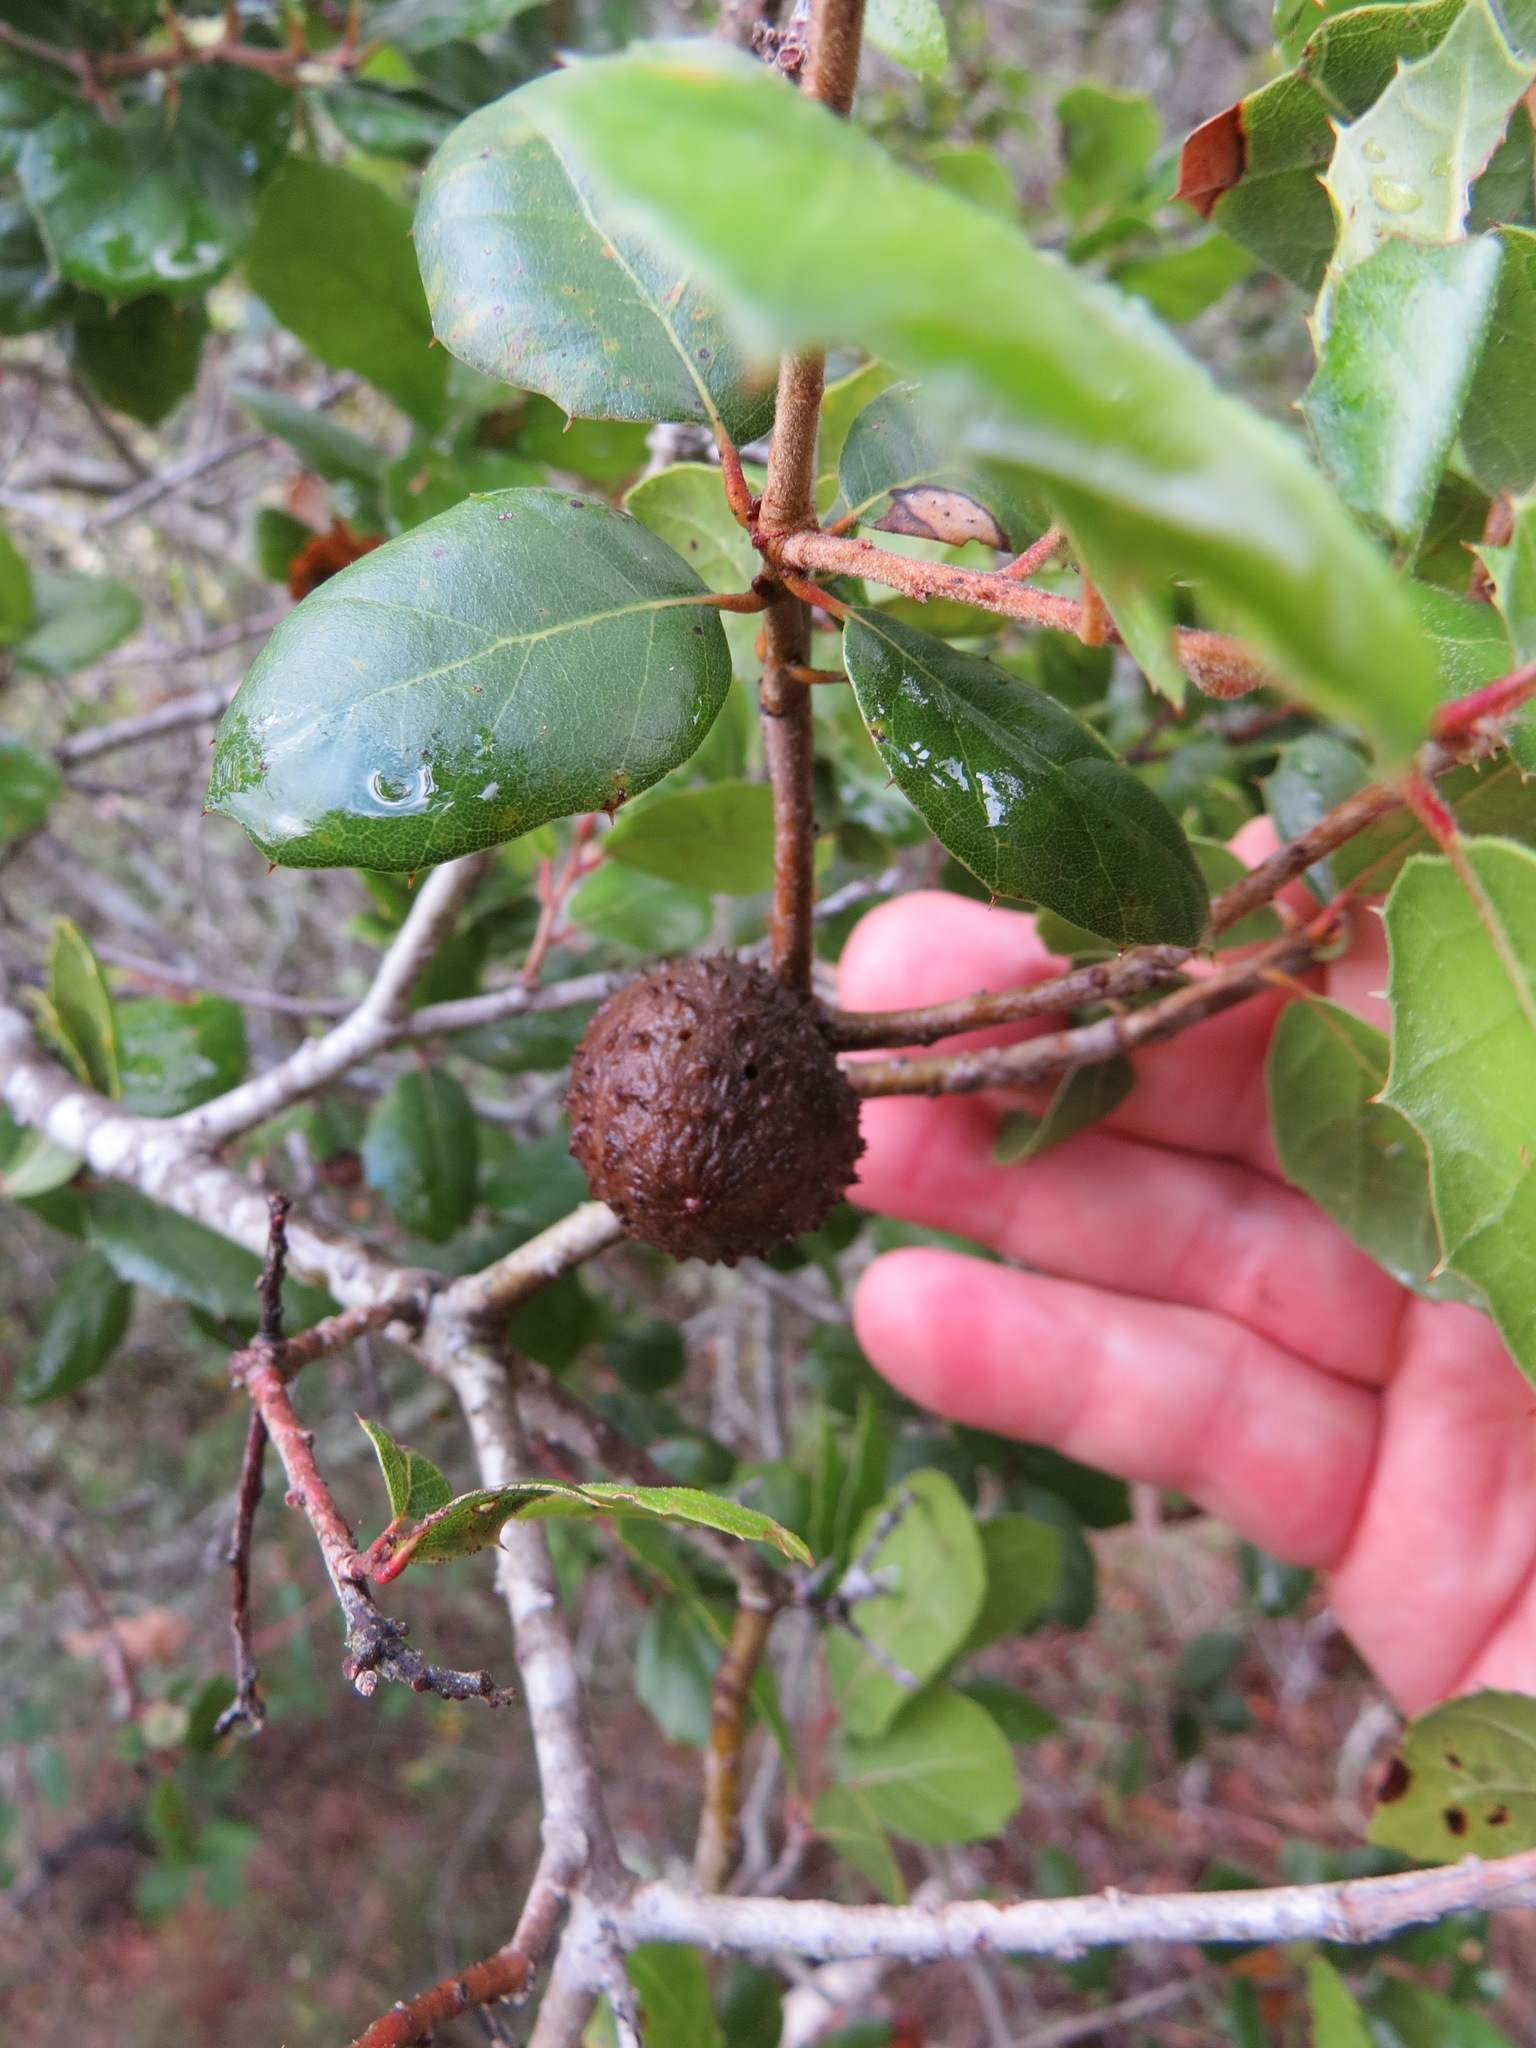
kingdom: Animalia
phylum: Arthropoda
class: Insecta
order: Hymenoptera
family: Cynipidae
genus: Amphibolips
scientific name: Amphibolips quercuspomiformis
